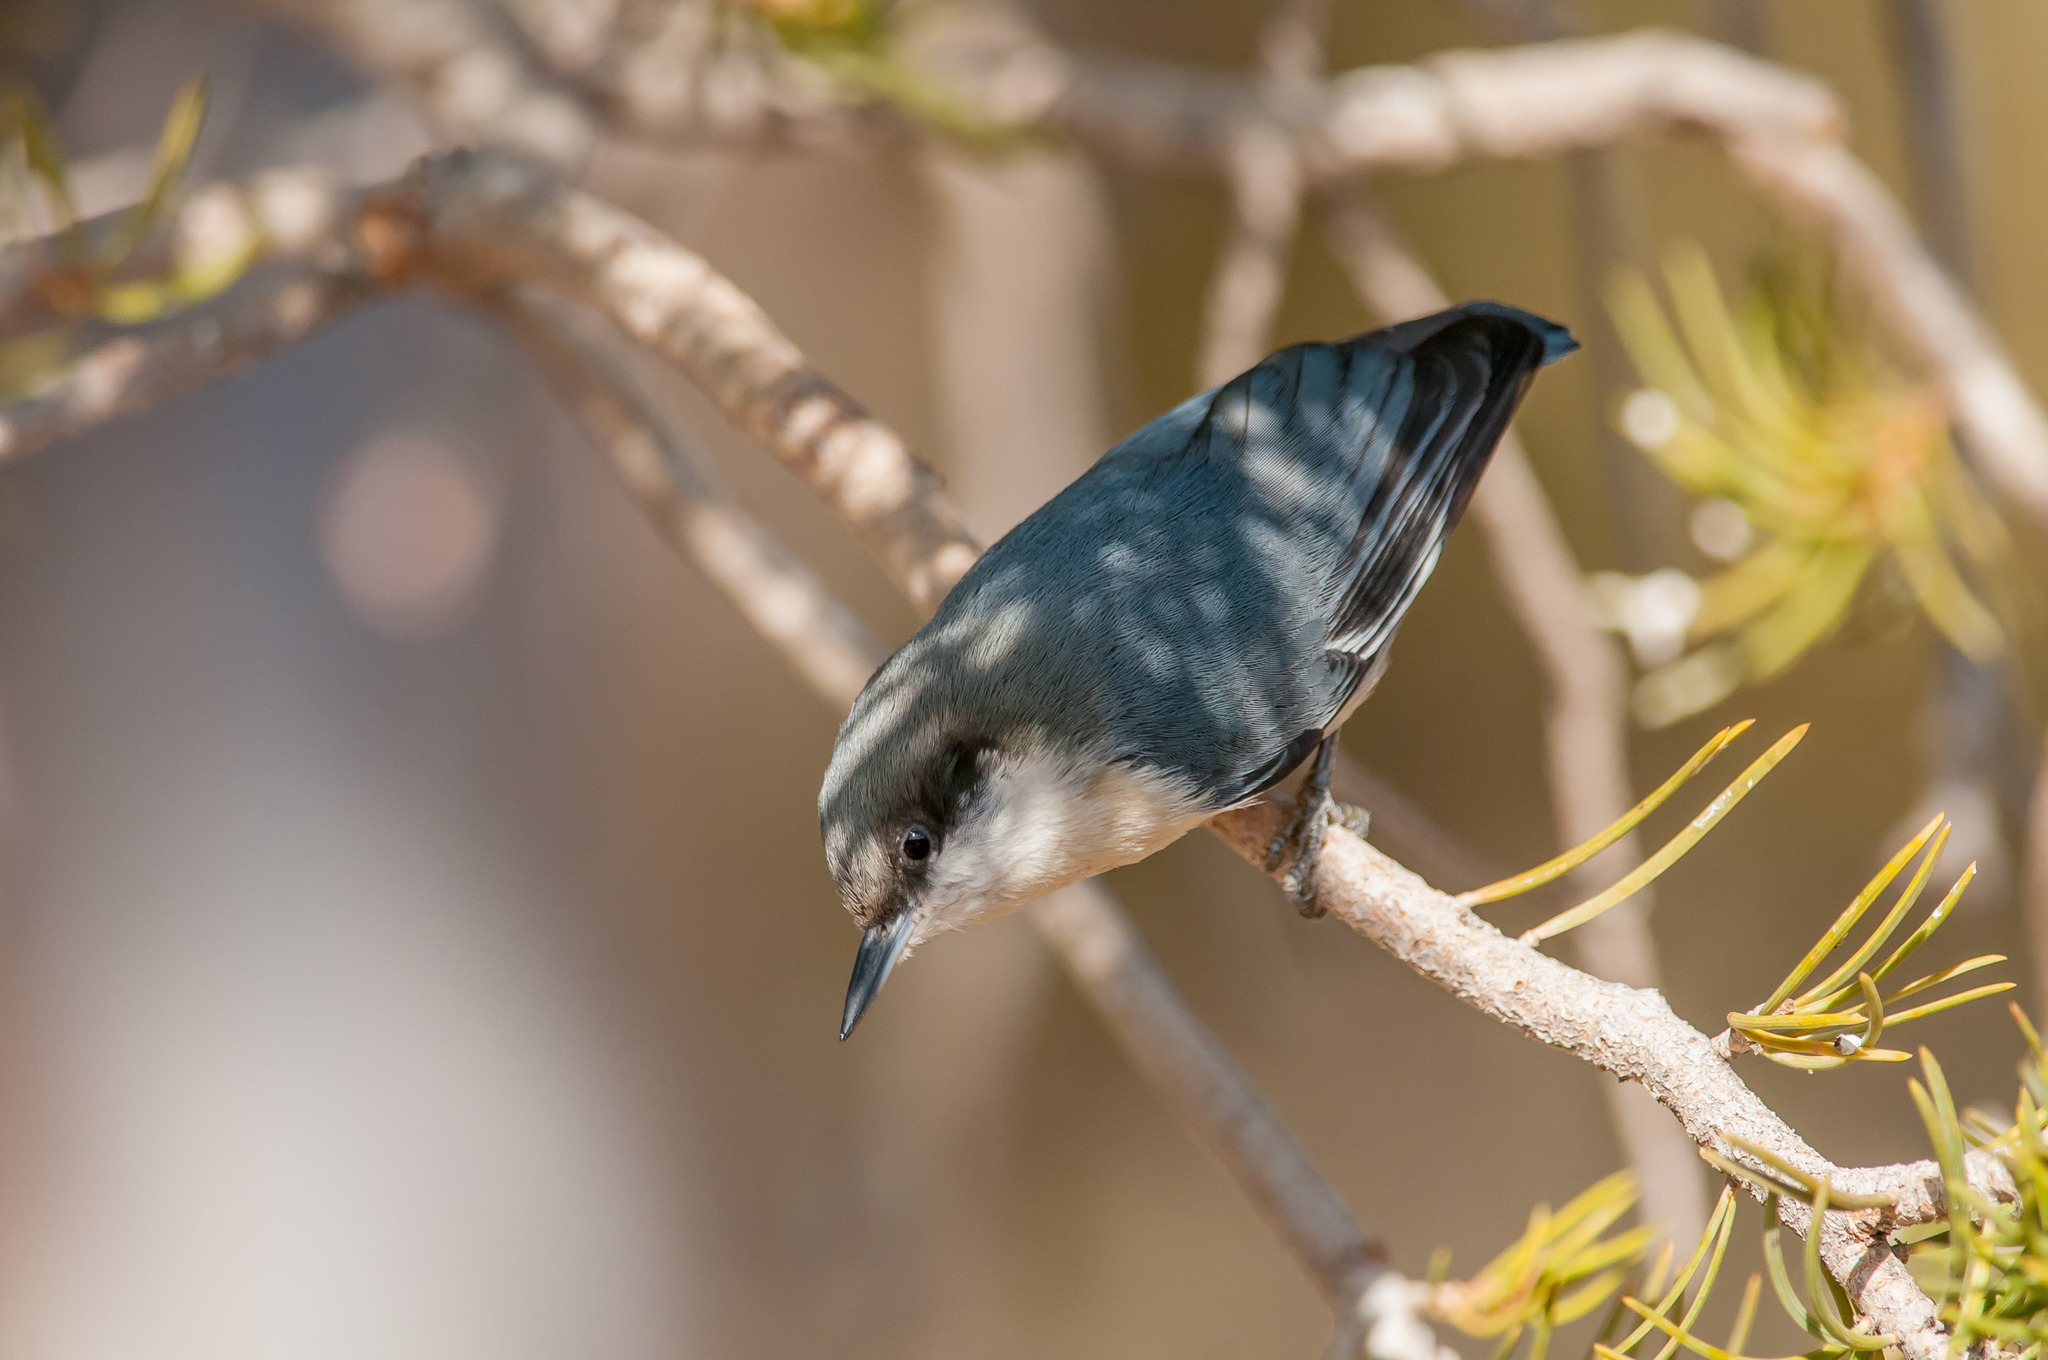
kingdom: Animalia
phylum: Chordata
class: Aves
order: Passeriformes
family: Sittidae
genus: Sitta
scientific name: Sitta pygmaea
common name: Pygmy nuthatch
